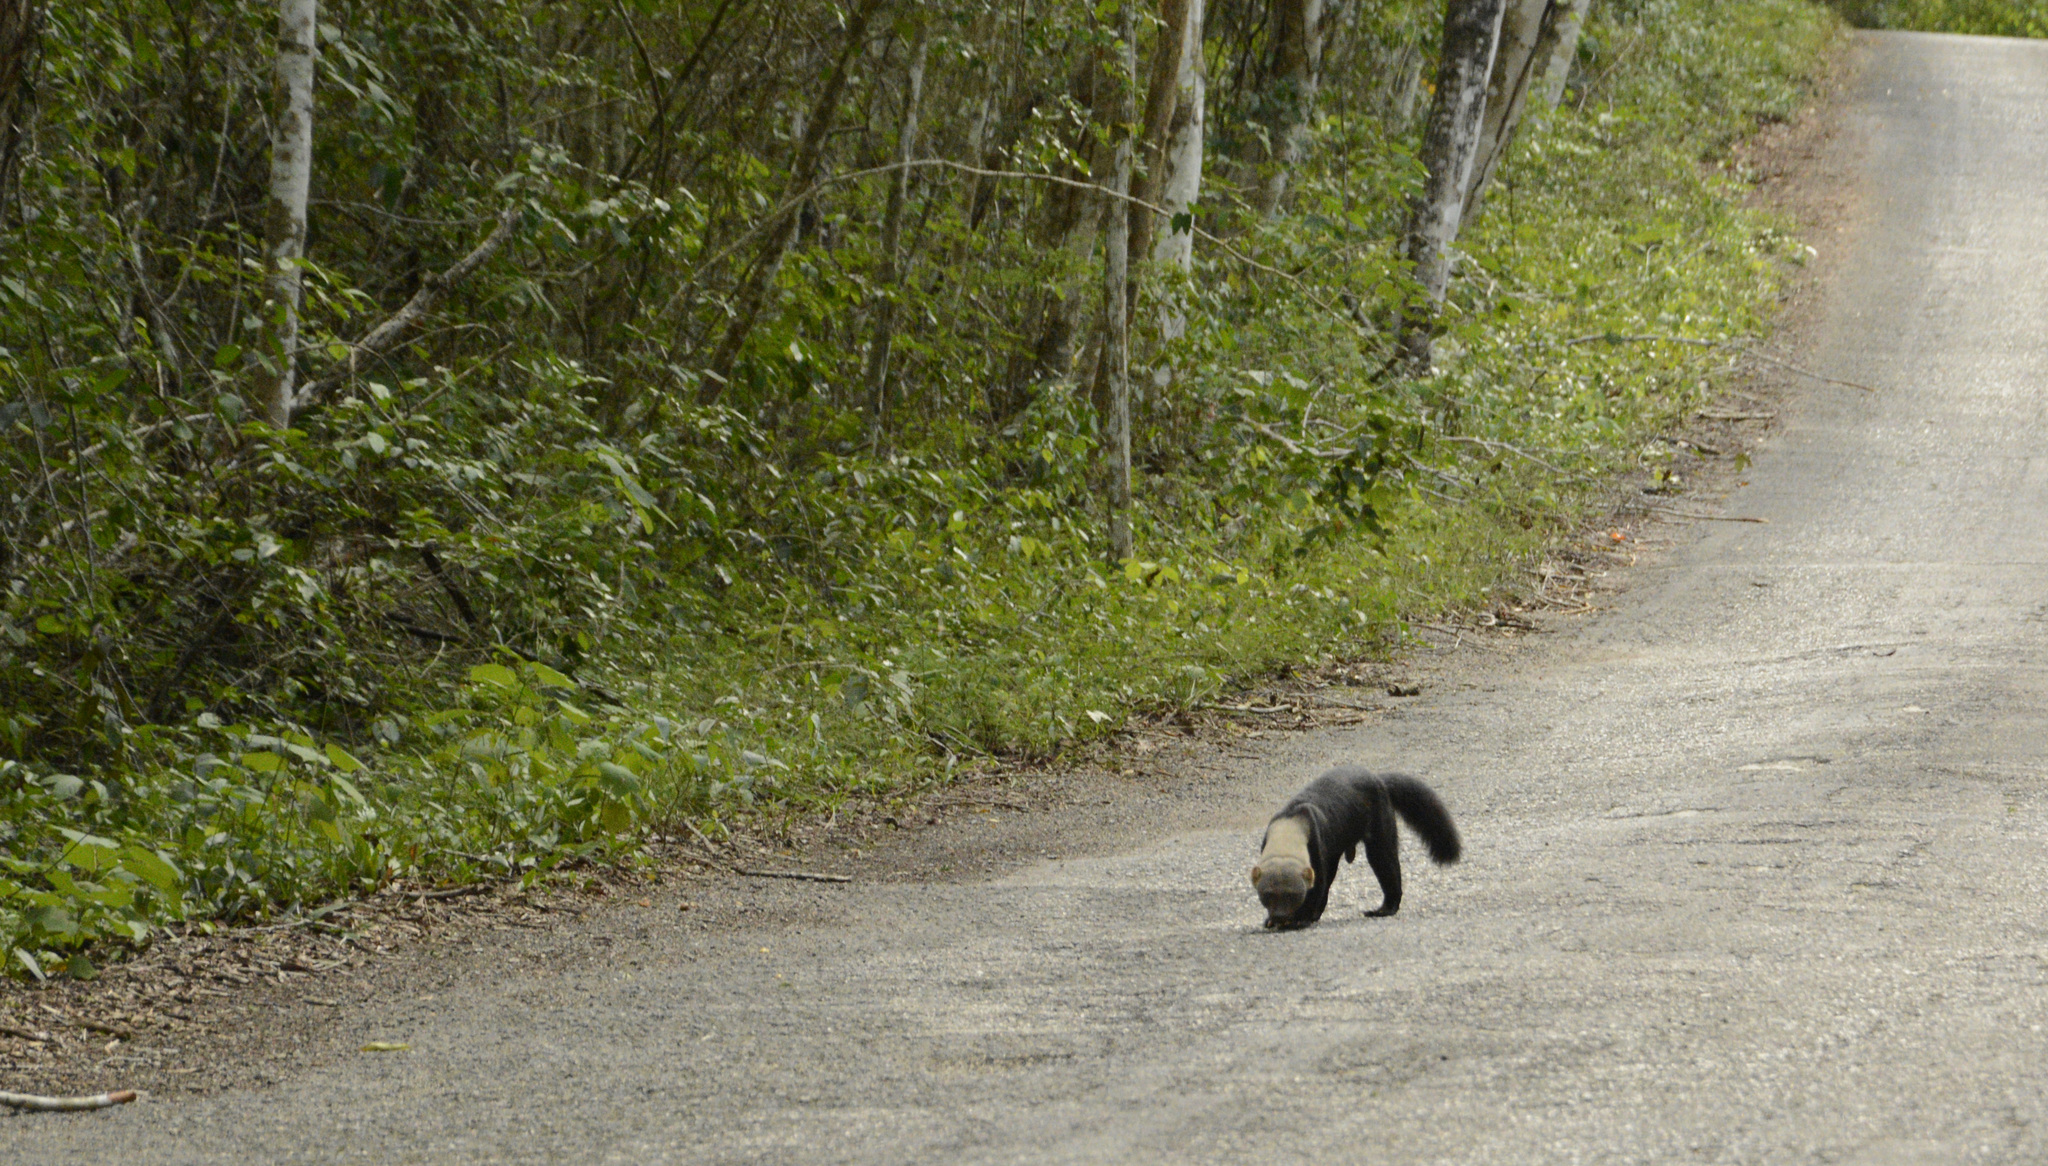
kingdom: Animalia
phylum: Chordata
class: Mammalia
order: Carnivora
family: Mustelidae
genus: Eira
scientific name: Eira barbara
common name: Tayra
